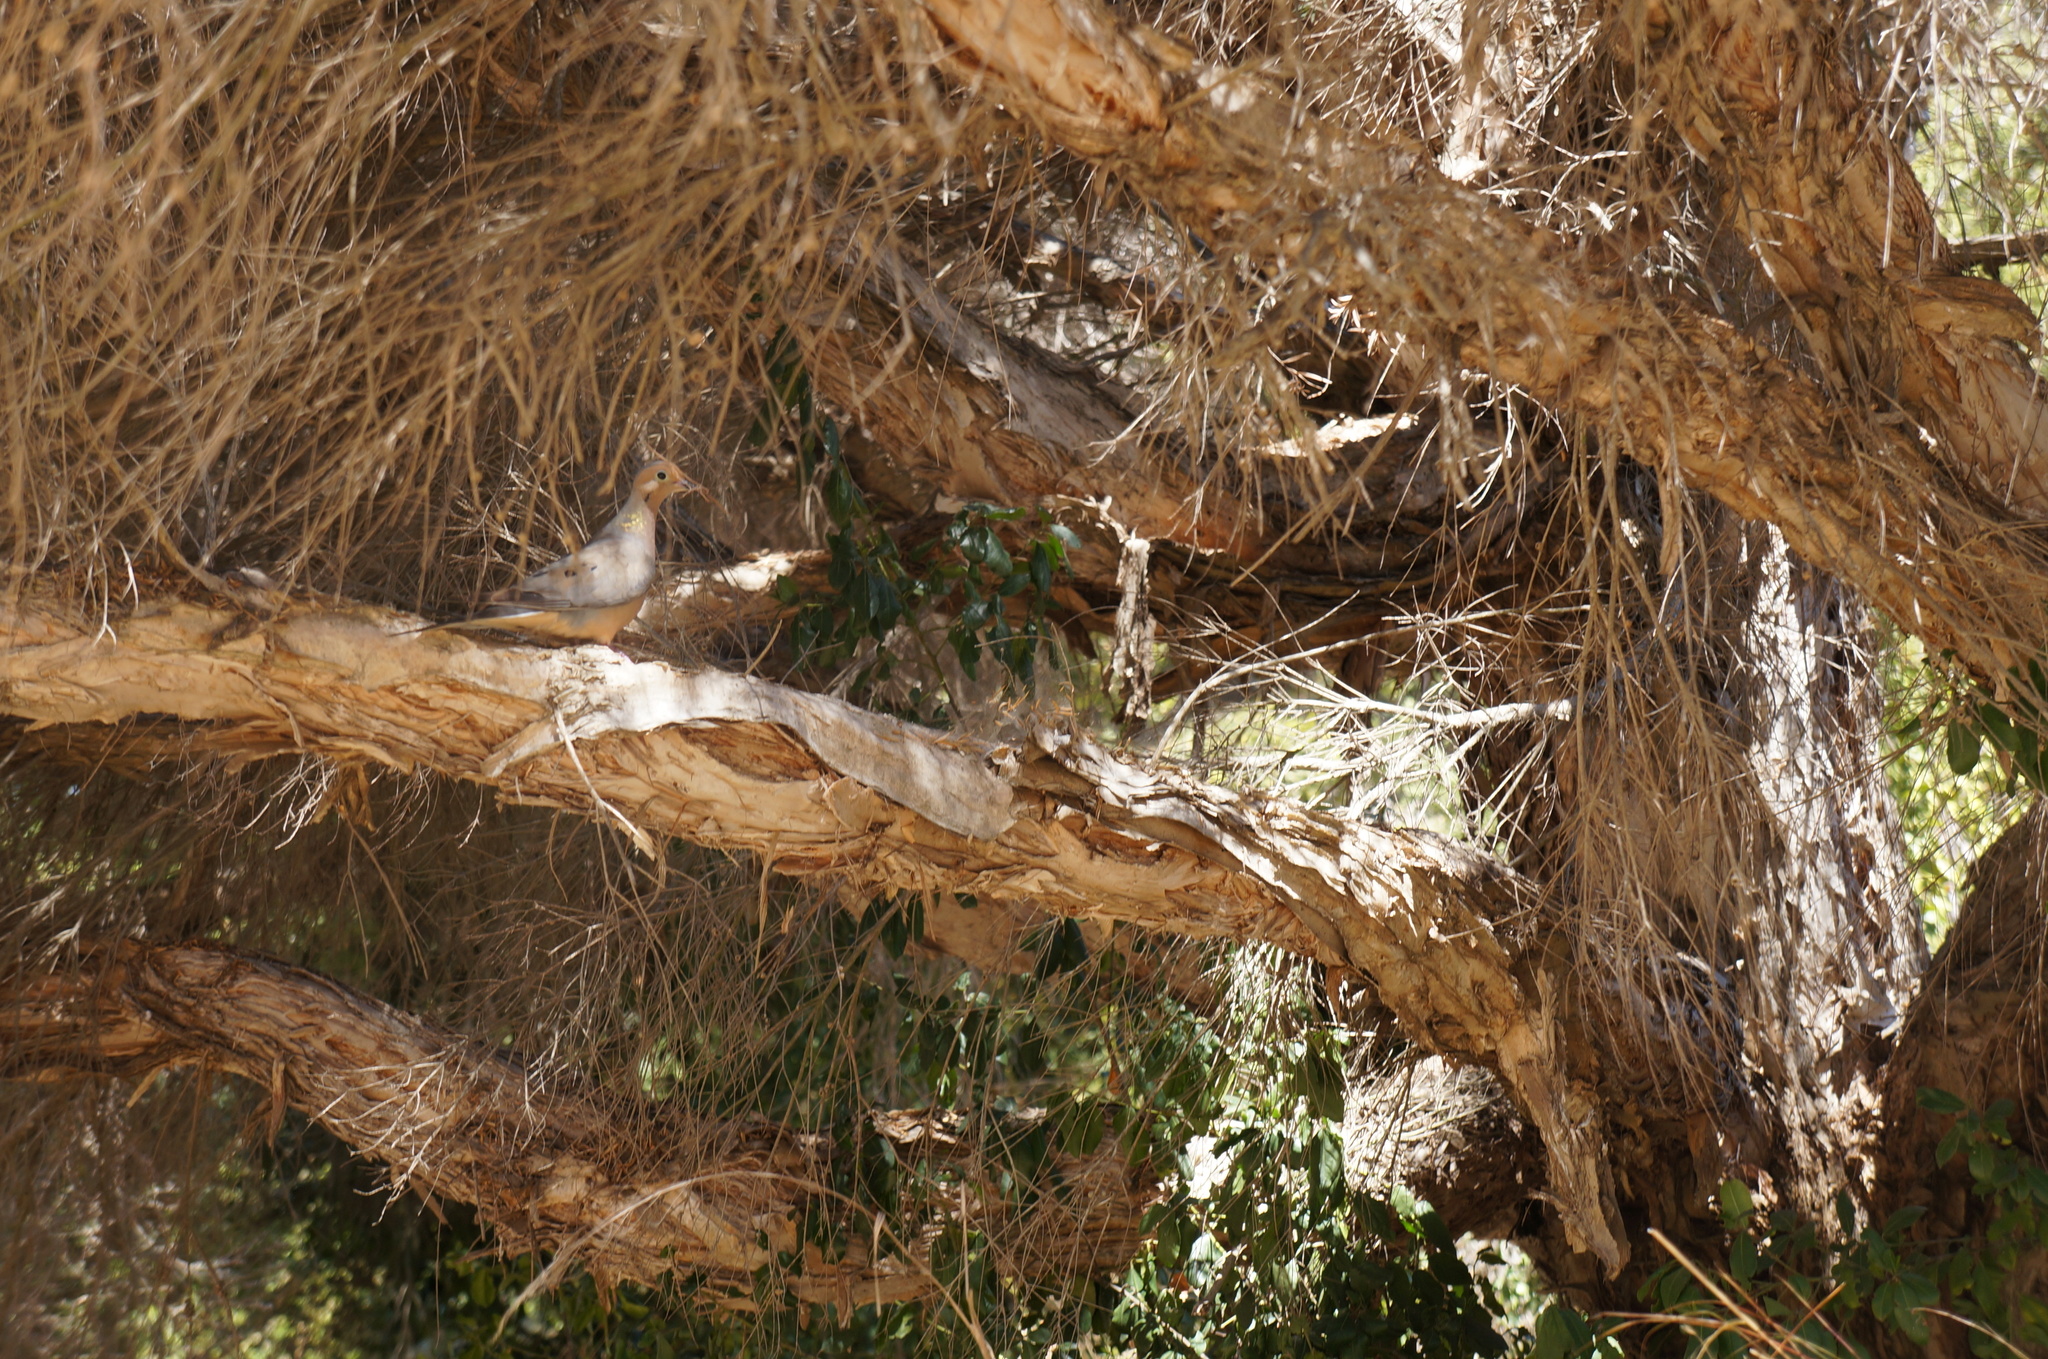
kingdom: Animalia
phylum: Chordata
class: Aves
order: Columbiformes
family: Columbidae
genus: Zenaida
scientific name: Zenaida macroura
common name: Mourning dove
